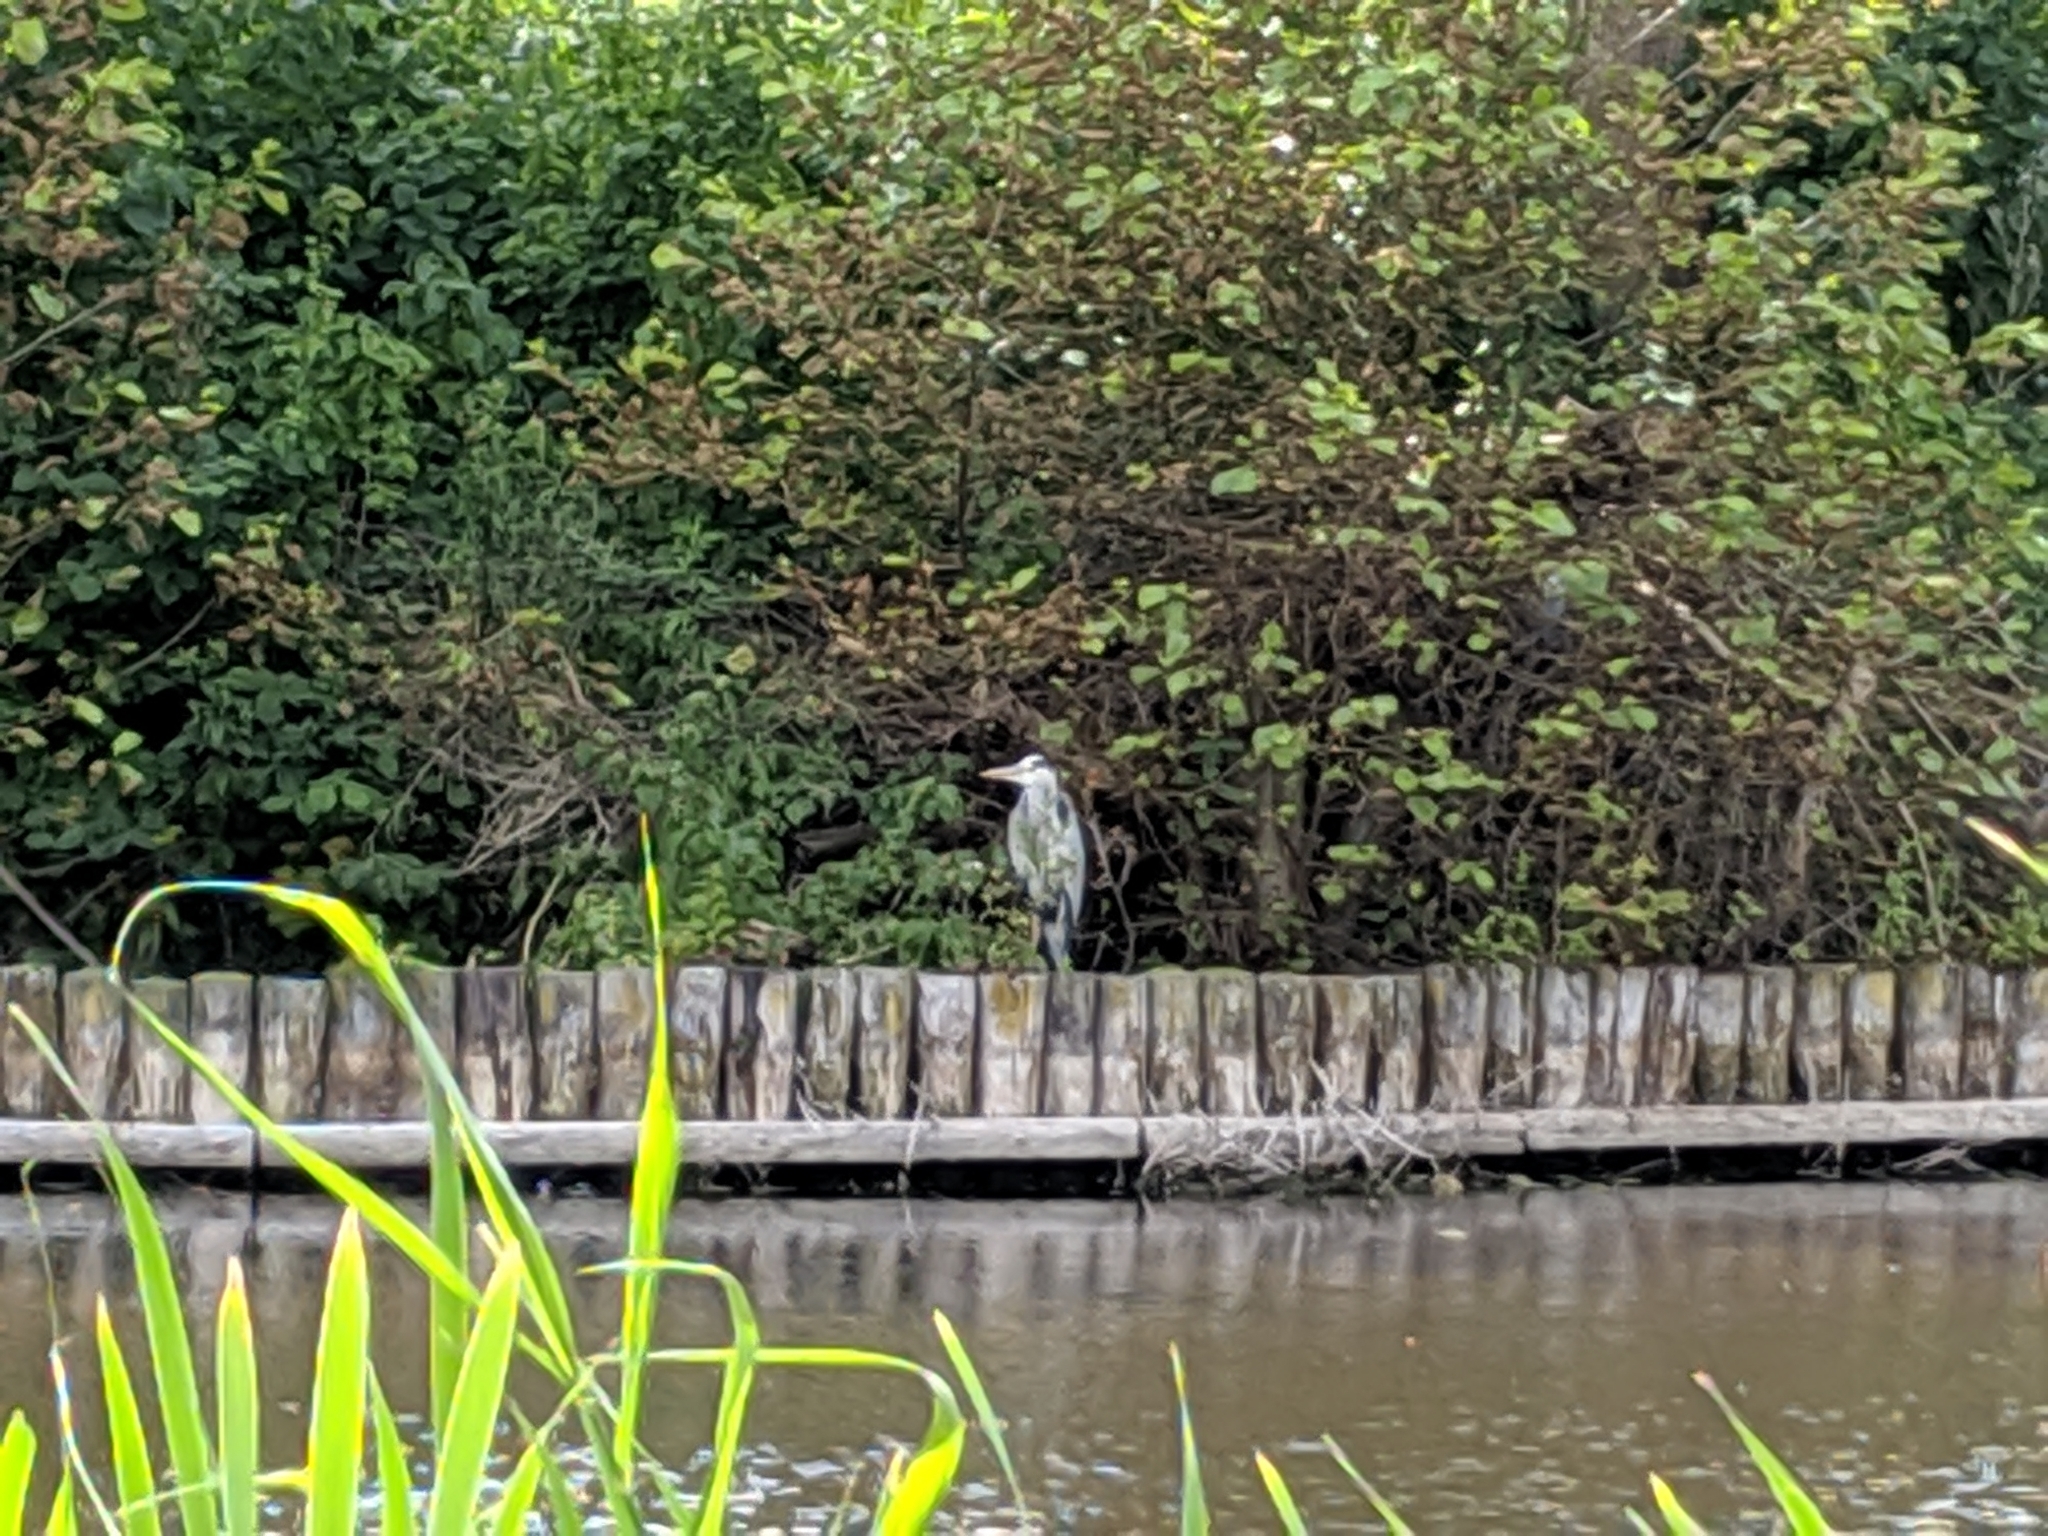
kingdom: Animalia
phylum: Chordata
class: Aves
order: Pelecaniformes
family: Ardeidae
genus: Ardea
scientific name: Ardea cinerea
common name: Grey heron
